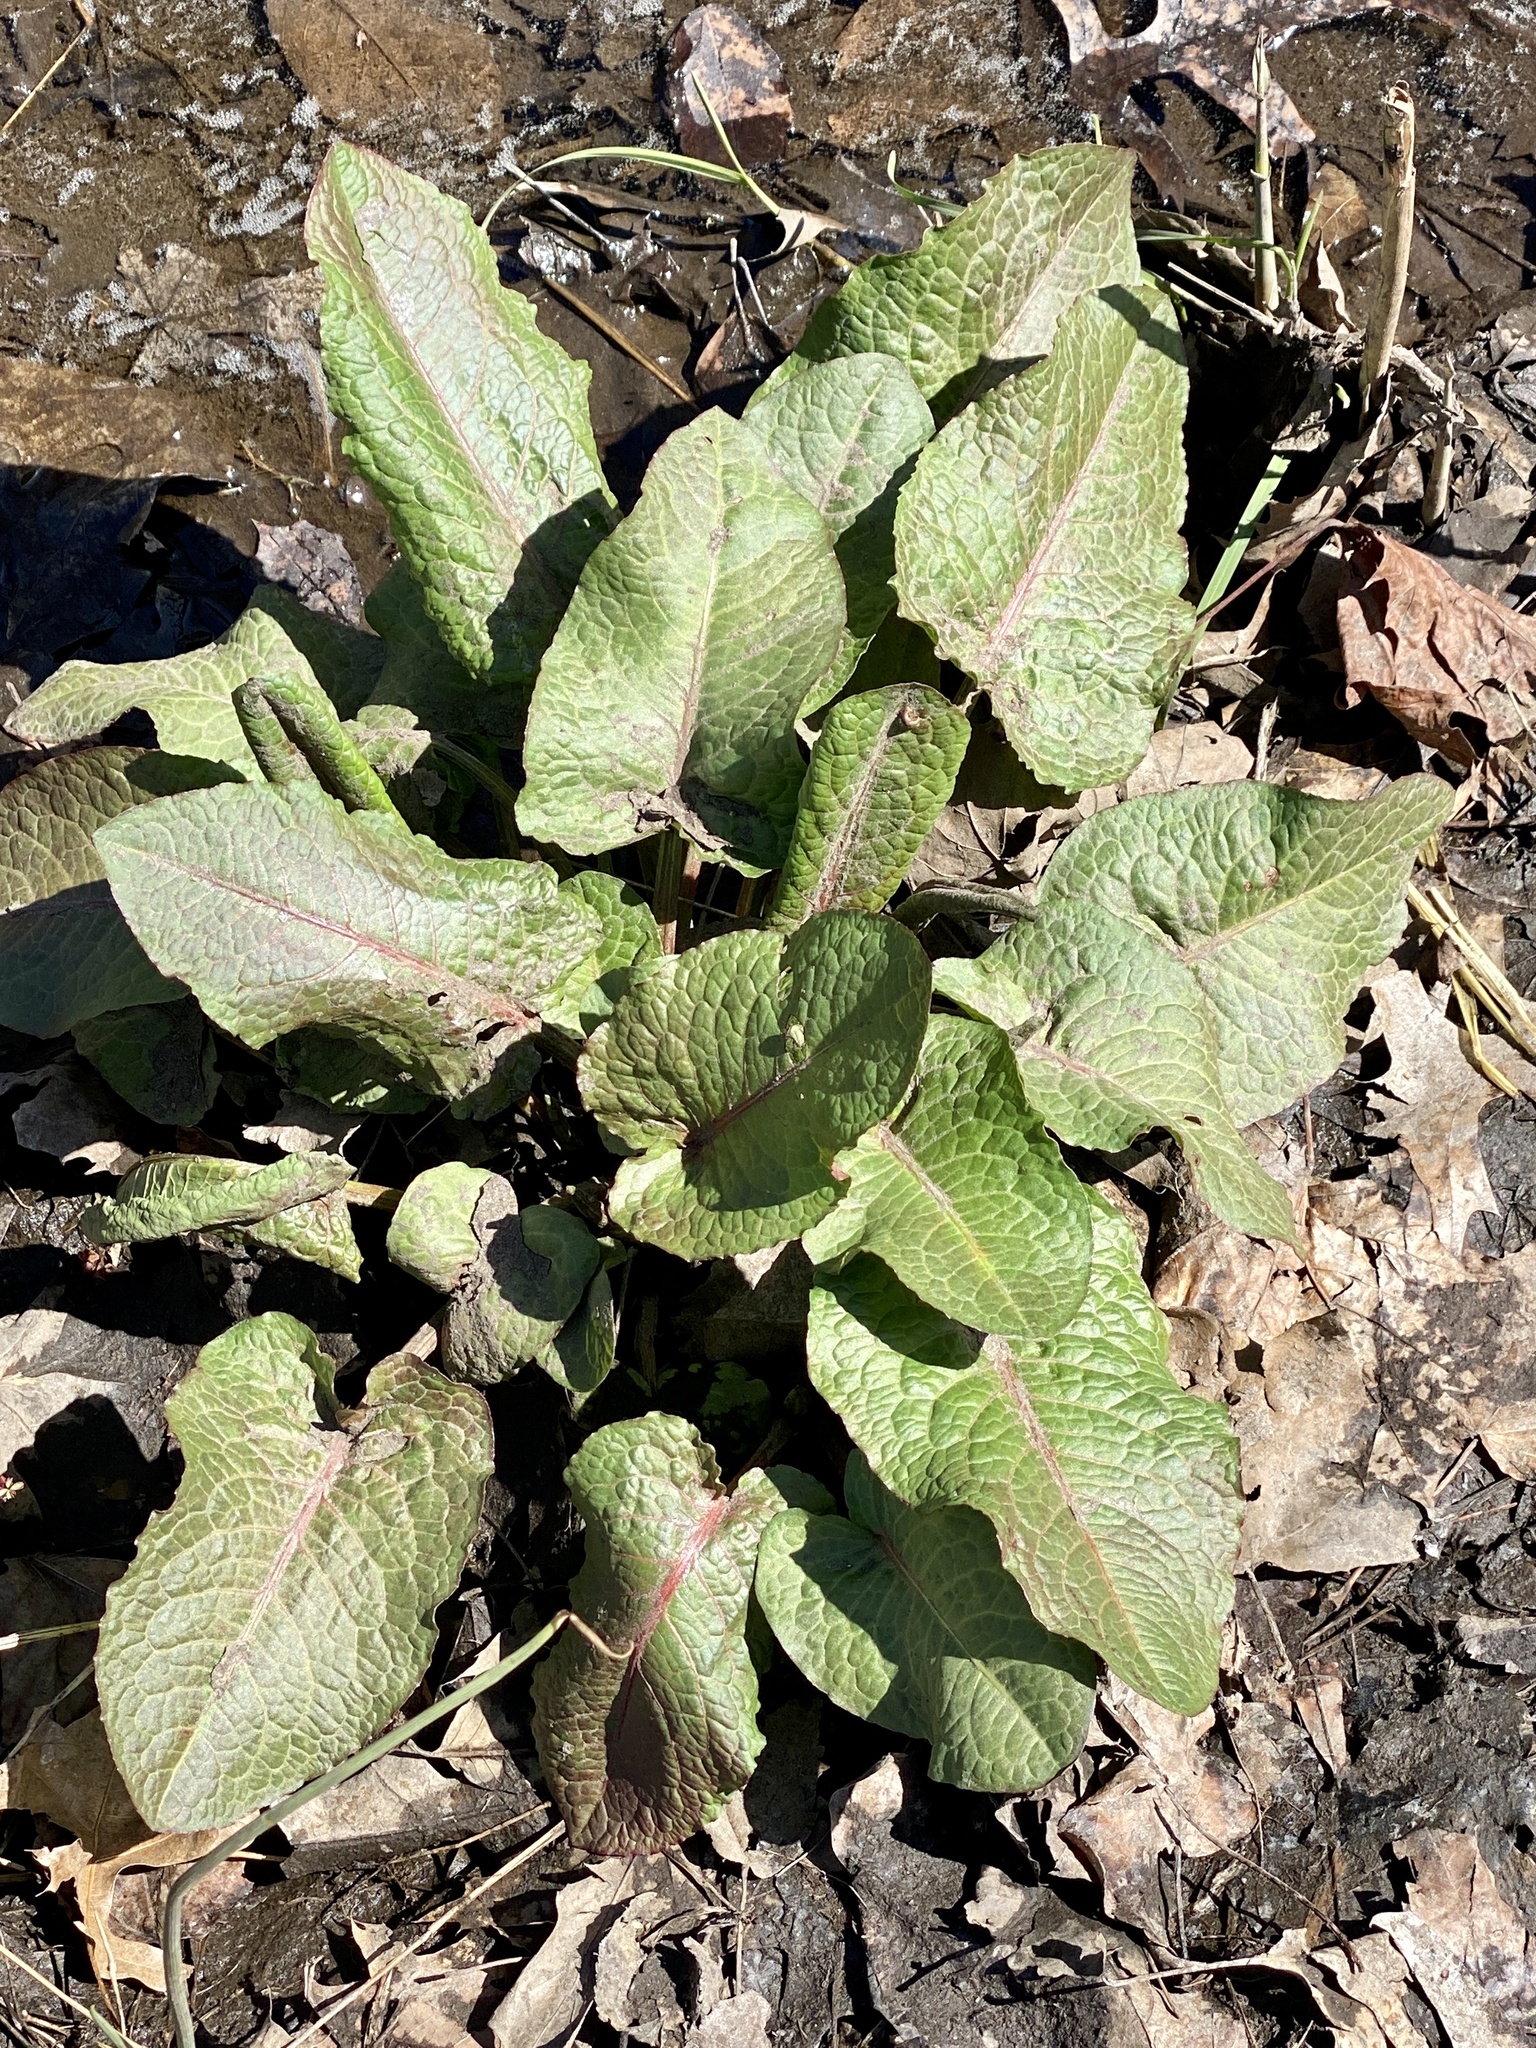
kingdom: Plantae
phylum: Tracheophyta
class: Magnoliopsida
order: Caryophyllales
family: Polygonaceae
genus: Rumex
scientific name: Rumex obtusifolius
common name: Bitter dock
